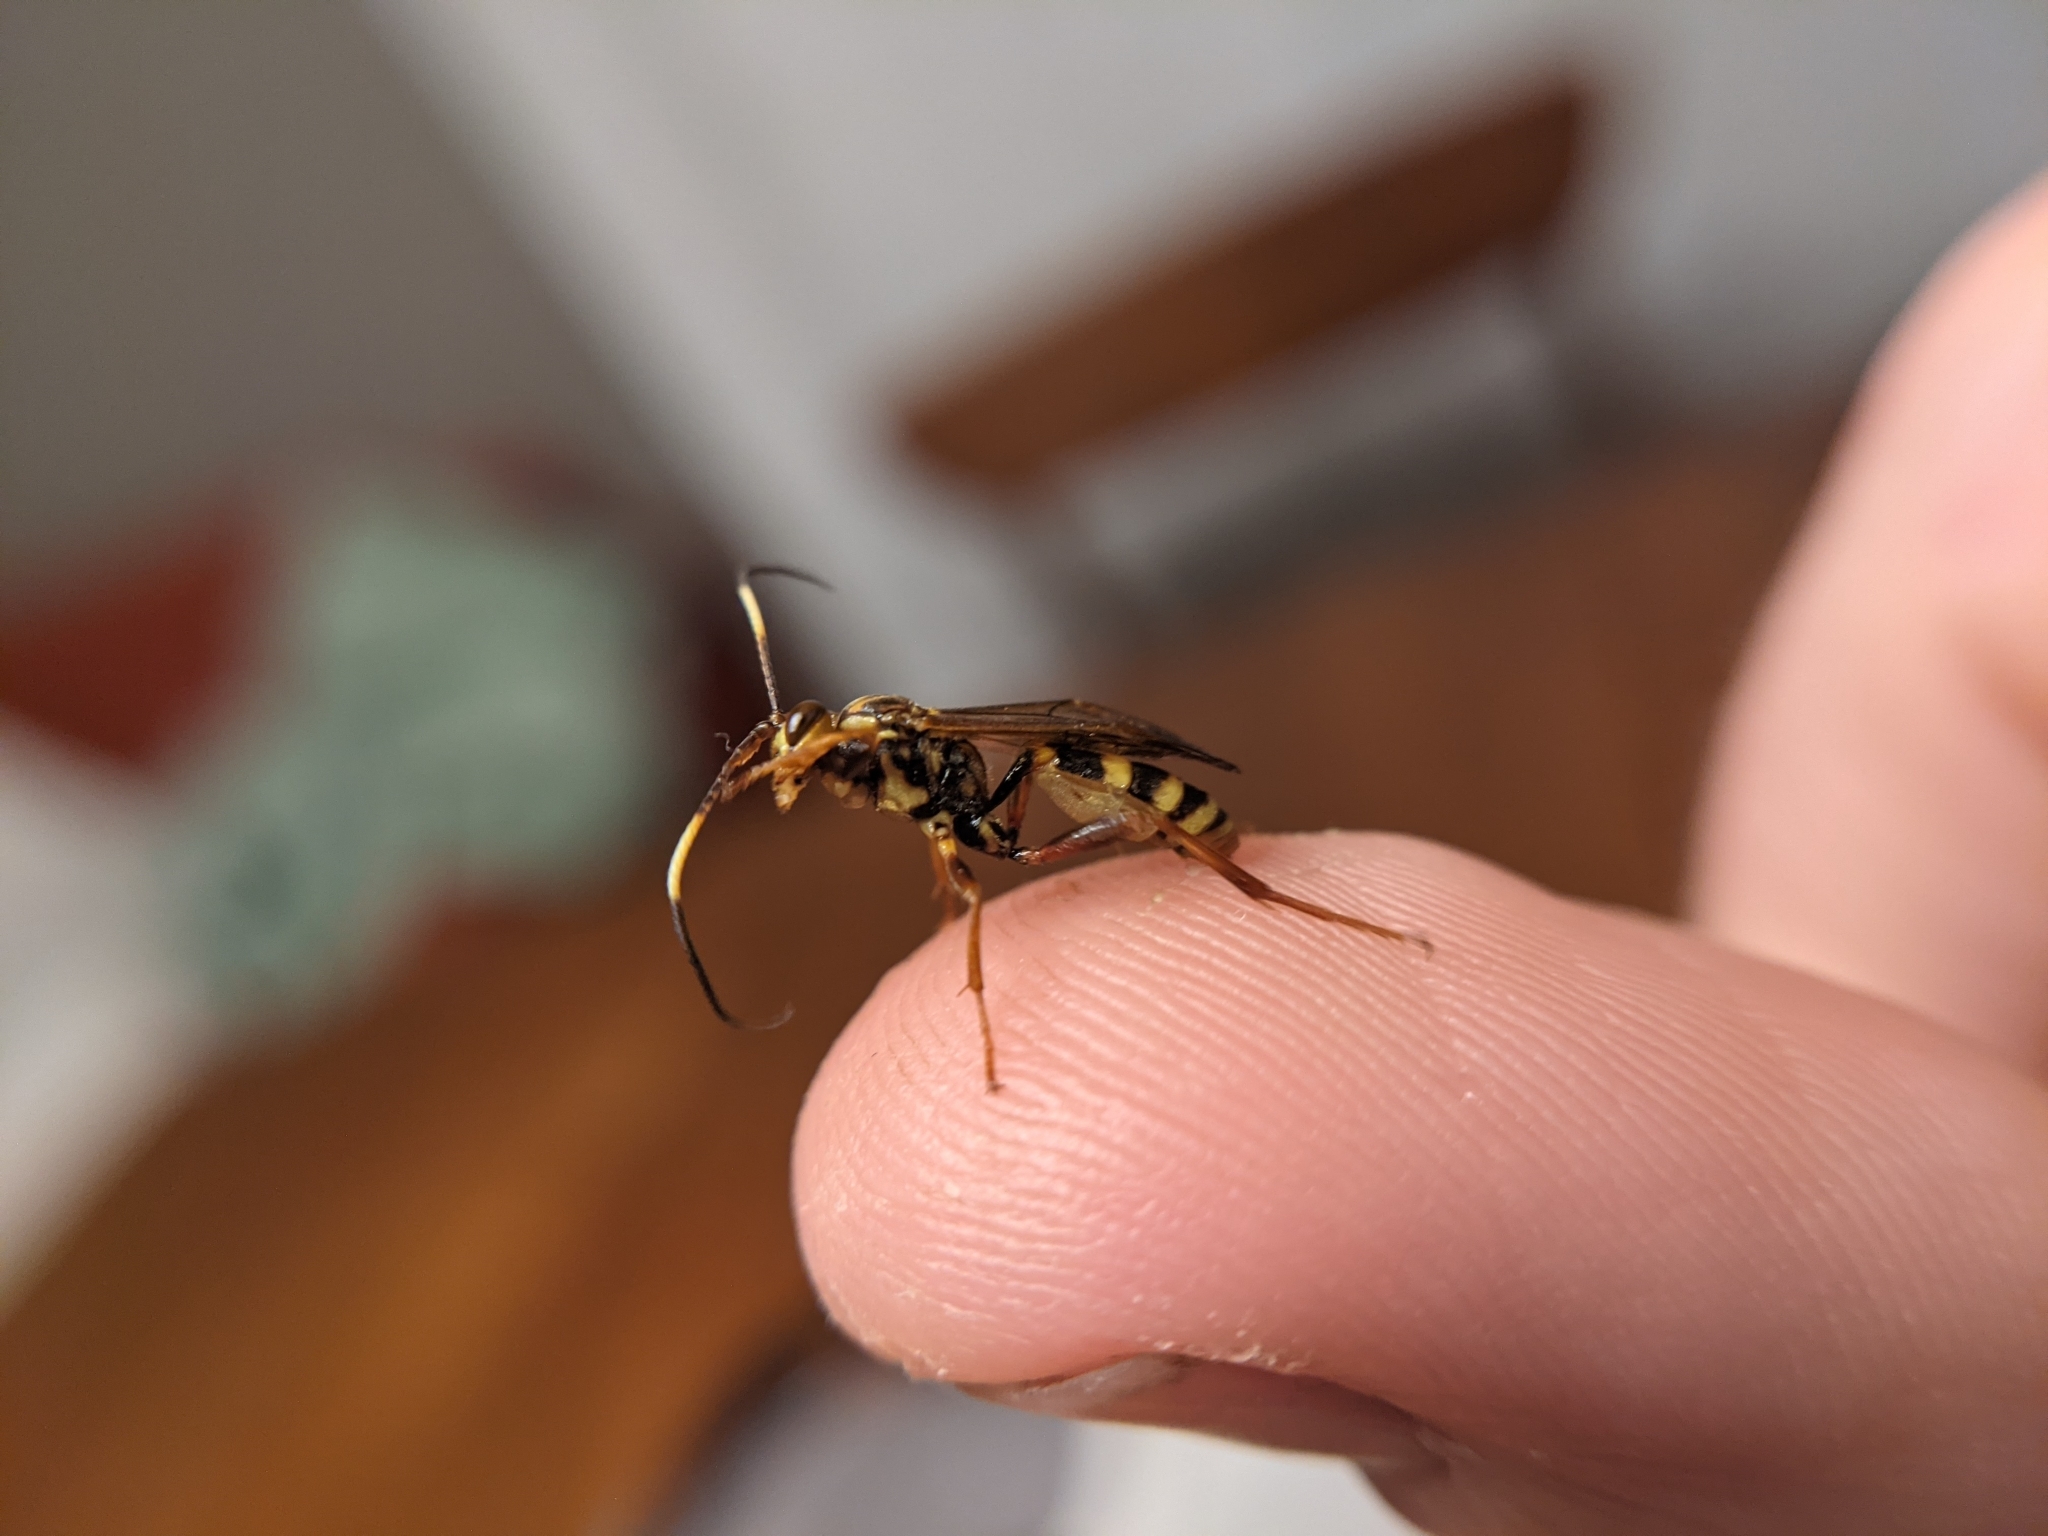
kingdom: Animalia
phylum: Arthropoda
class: Insecta
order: Hymenoptera
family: Ichneumonidae
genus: Setanta
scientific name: Setanta parsimonica
